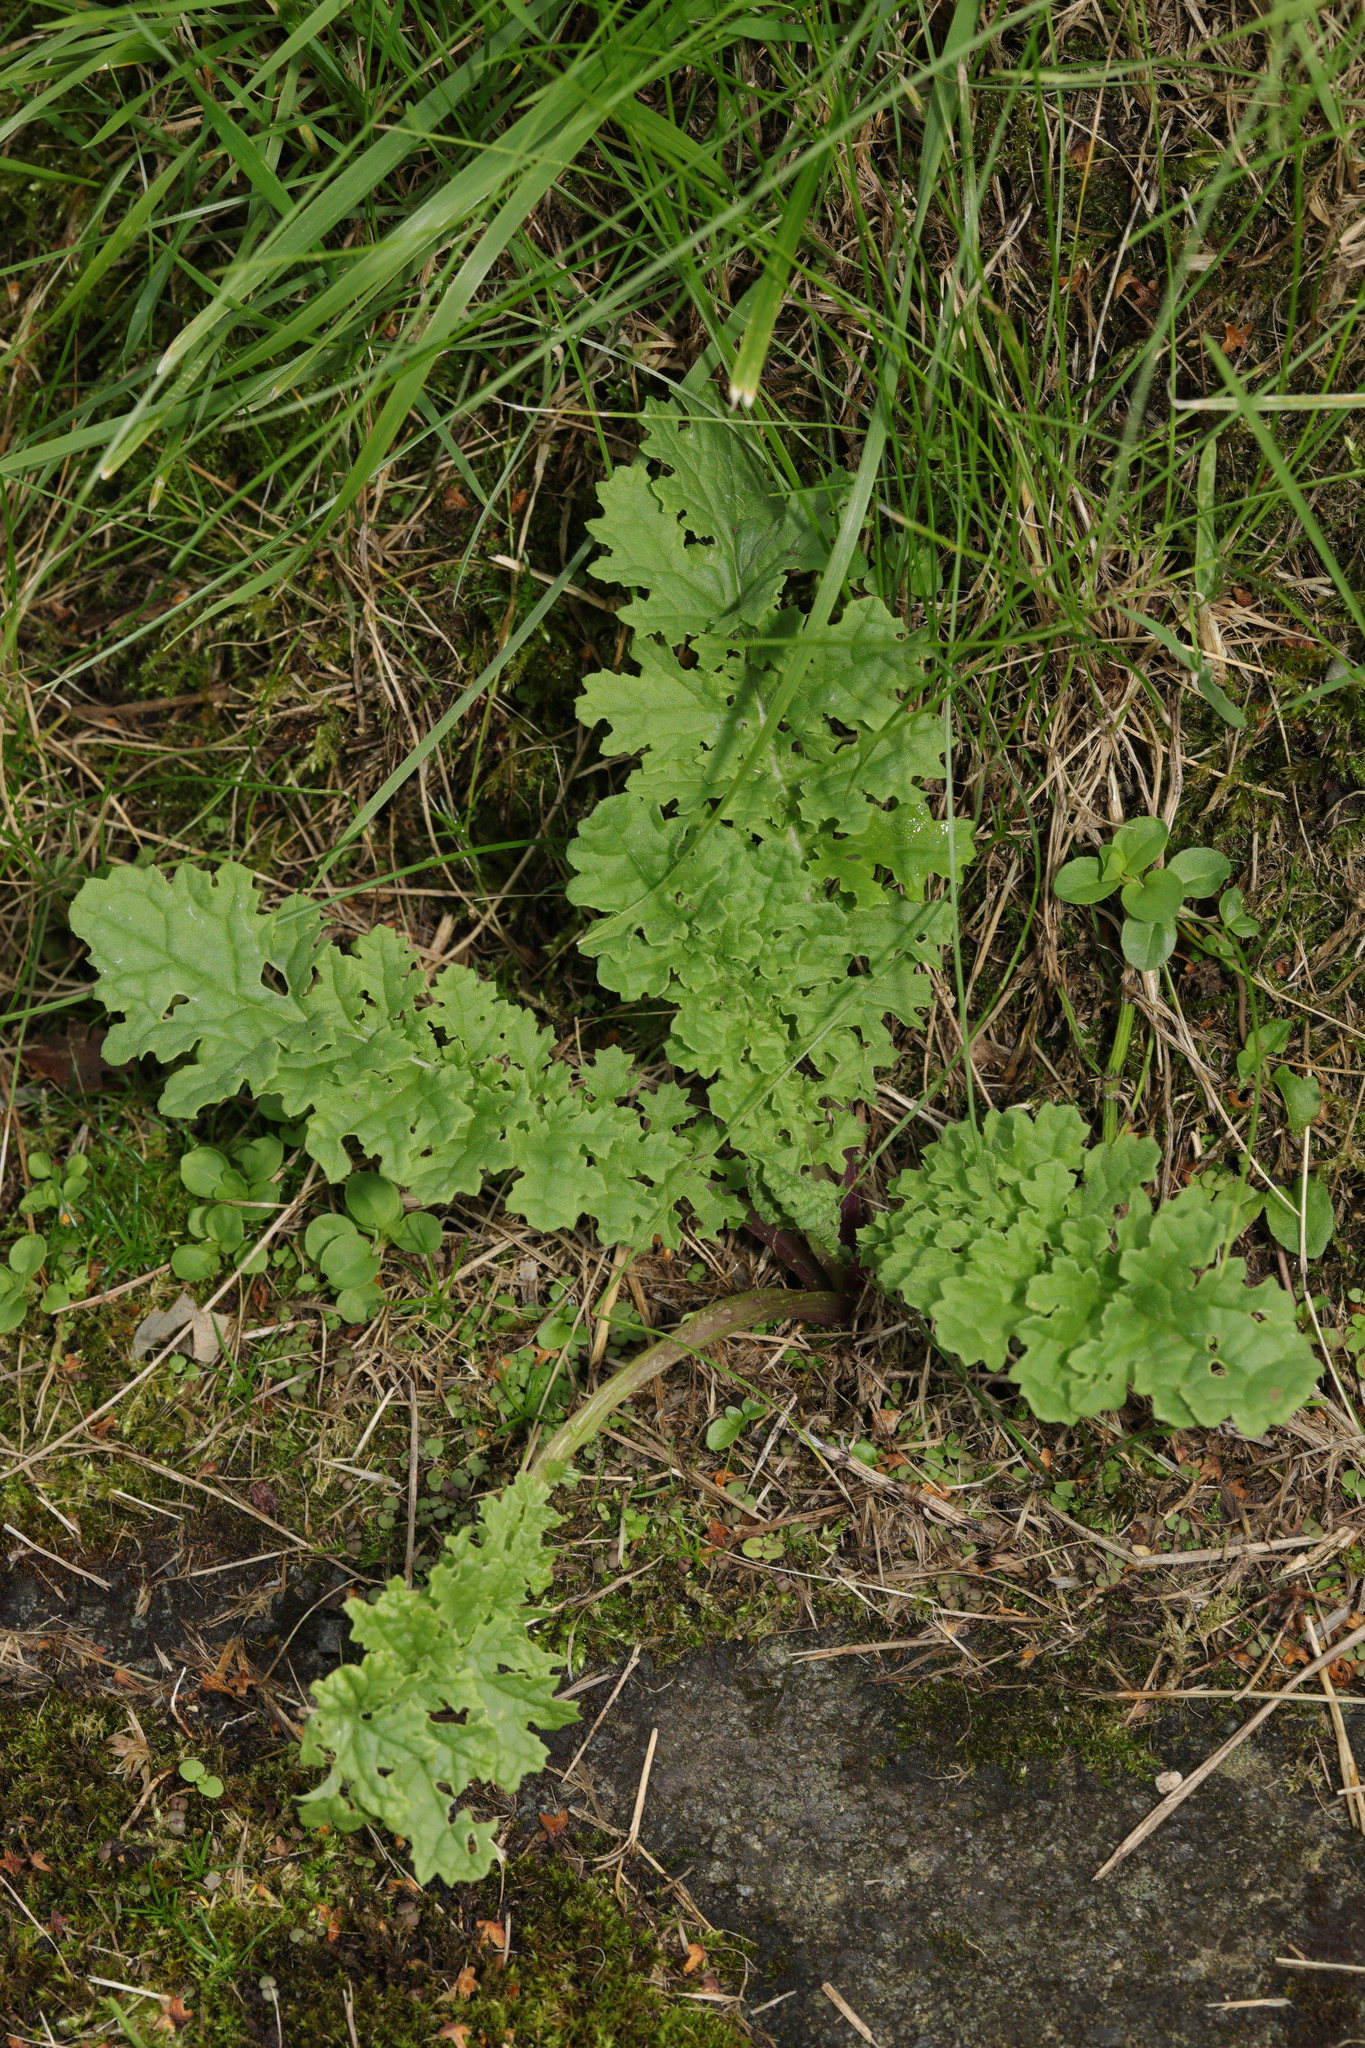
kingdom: Plantae
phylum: Tracheophyta
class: Magnoliopsida
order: Asterales
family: Asteraceae
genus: Jacobaea
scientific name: Jacobaea vulgaris
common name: Stinking willie
